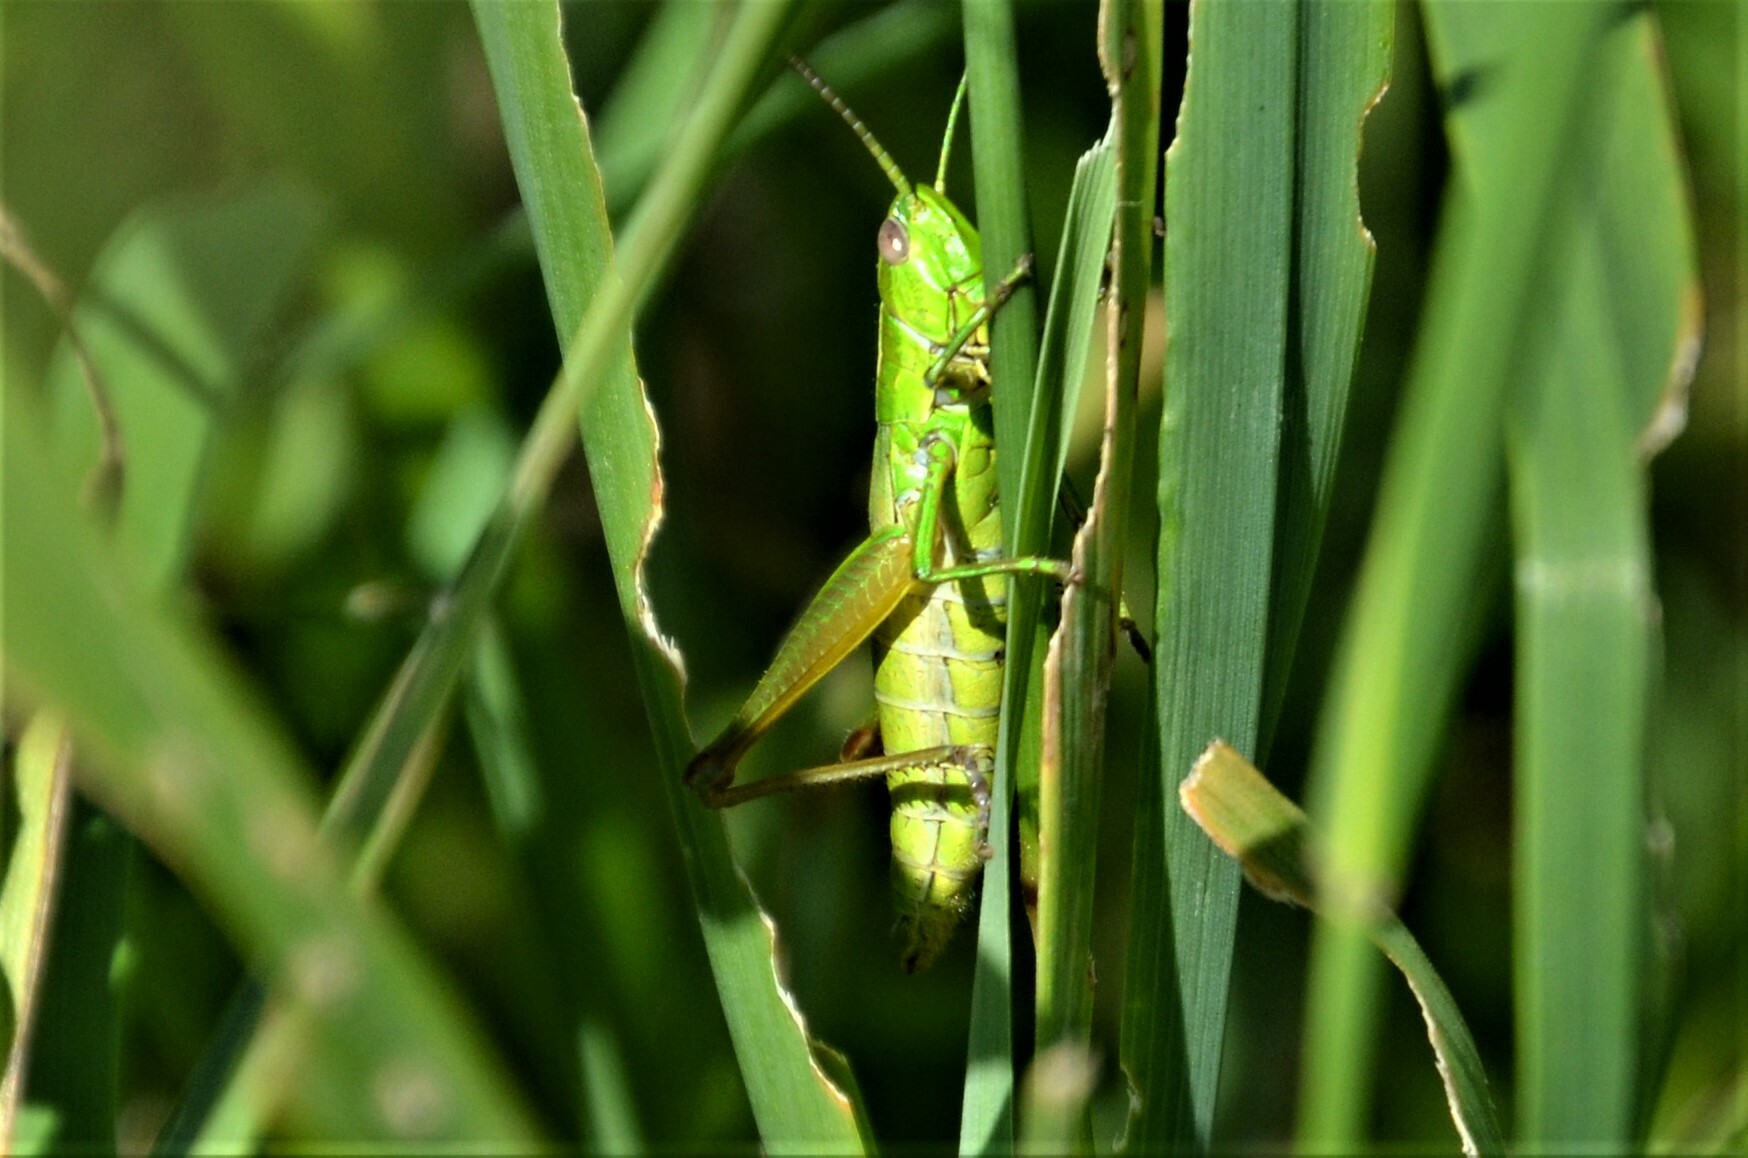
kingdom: Animalia
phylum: Arthropoda
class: Insecta
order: Orthoptera
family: Acrididae
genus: Euthystira
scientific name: Euthystira brachyptera
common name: Small gold grasshopper
